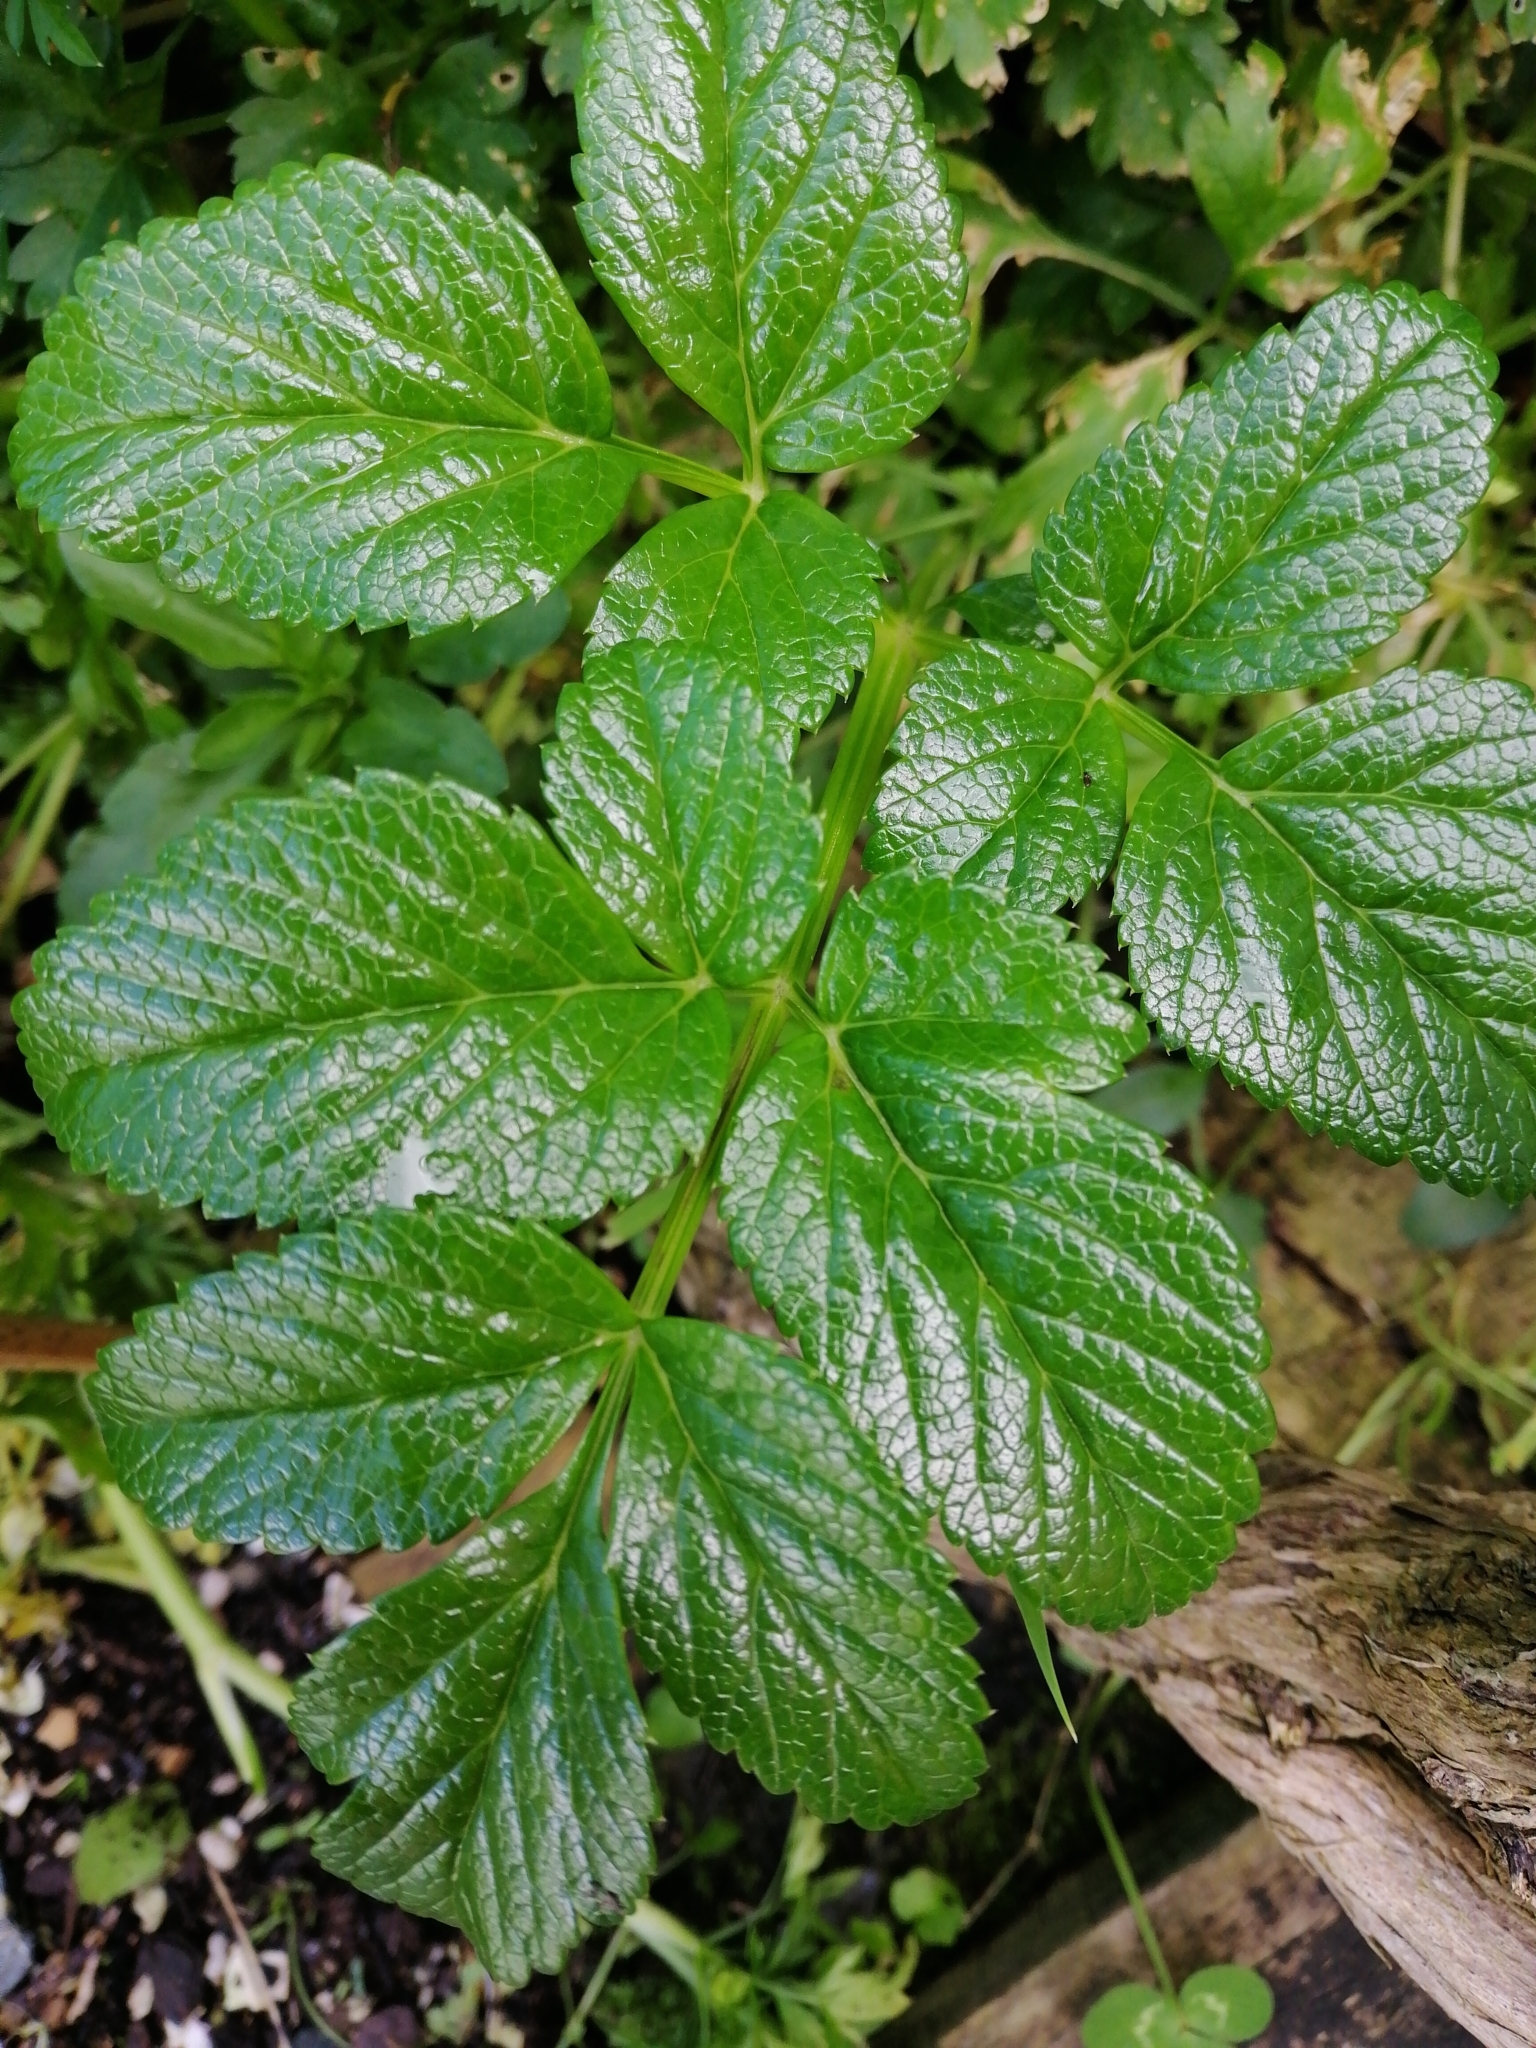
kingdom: Plantae
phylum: Tracheophyta
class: Magnoliopsida
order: Apiales
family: Apiaceae
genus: Angelica
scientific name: Angelica pachycarpa
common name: Portuguese angelica
